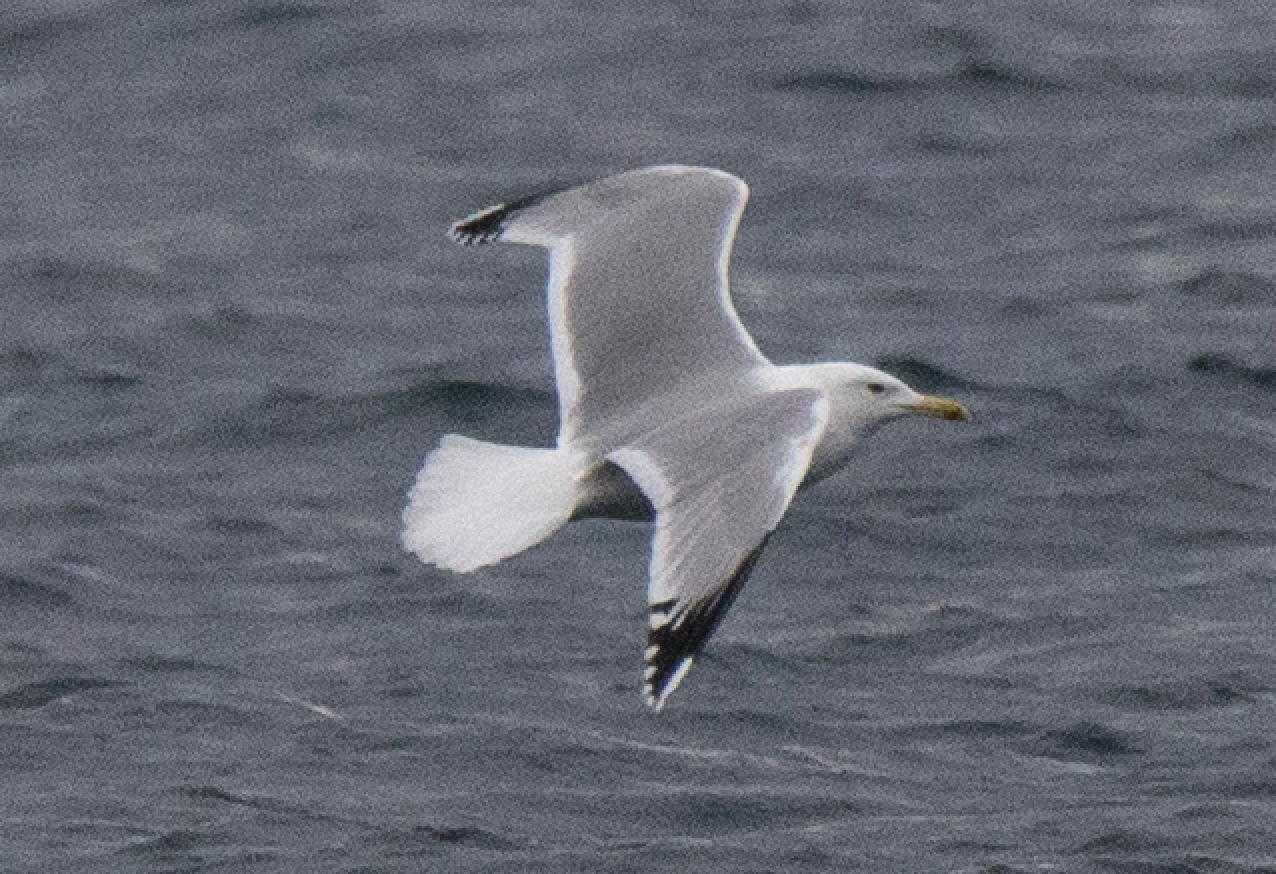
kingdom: Animalia
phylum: Chordata
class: Aves
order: Charadriiformes
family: Laridae
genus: Larus
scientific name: Larus michahellis
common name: Yellow-legged gull
